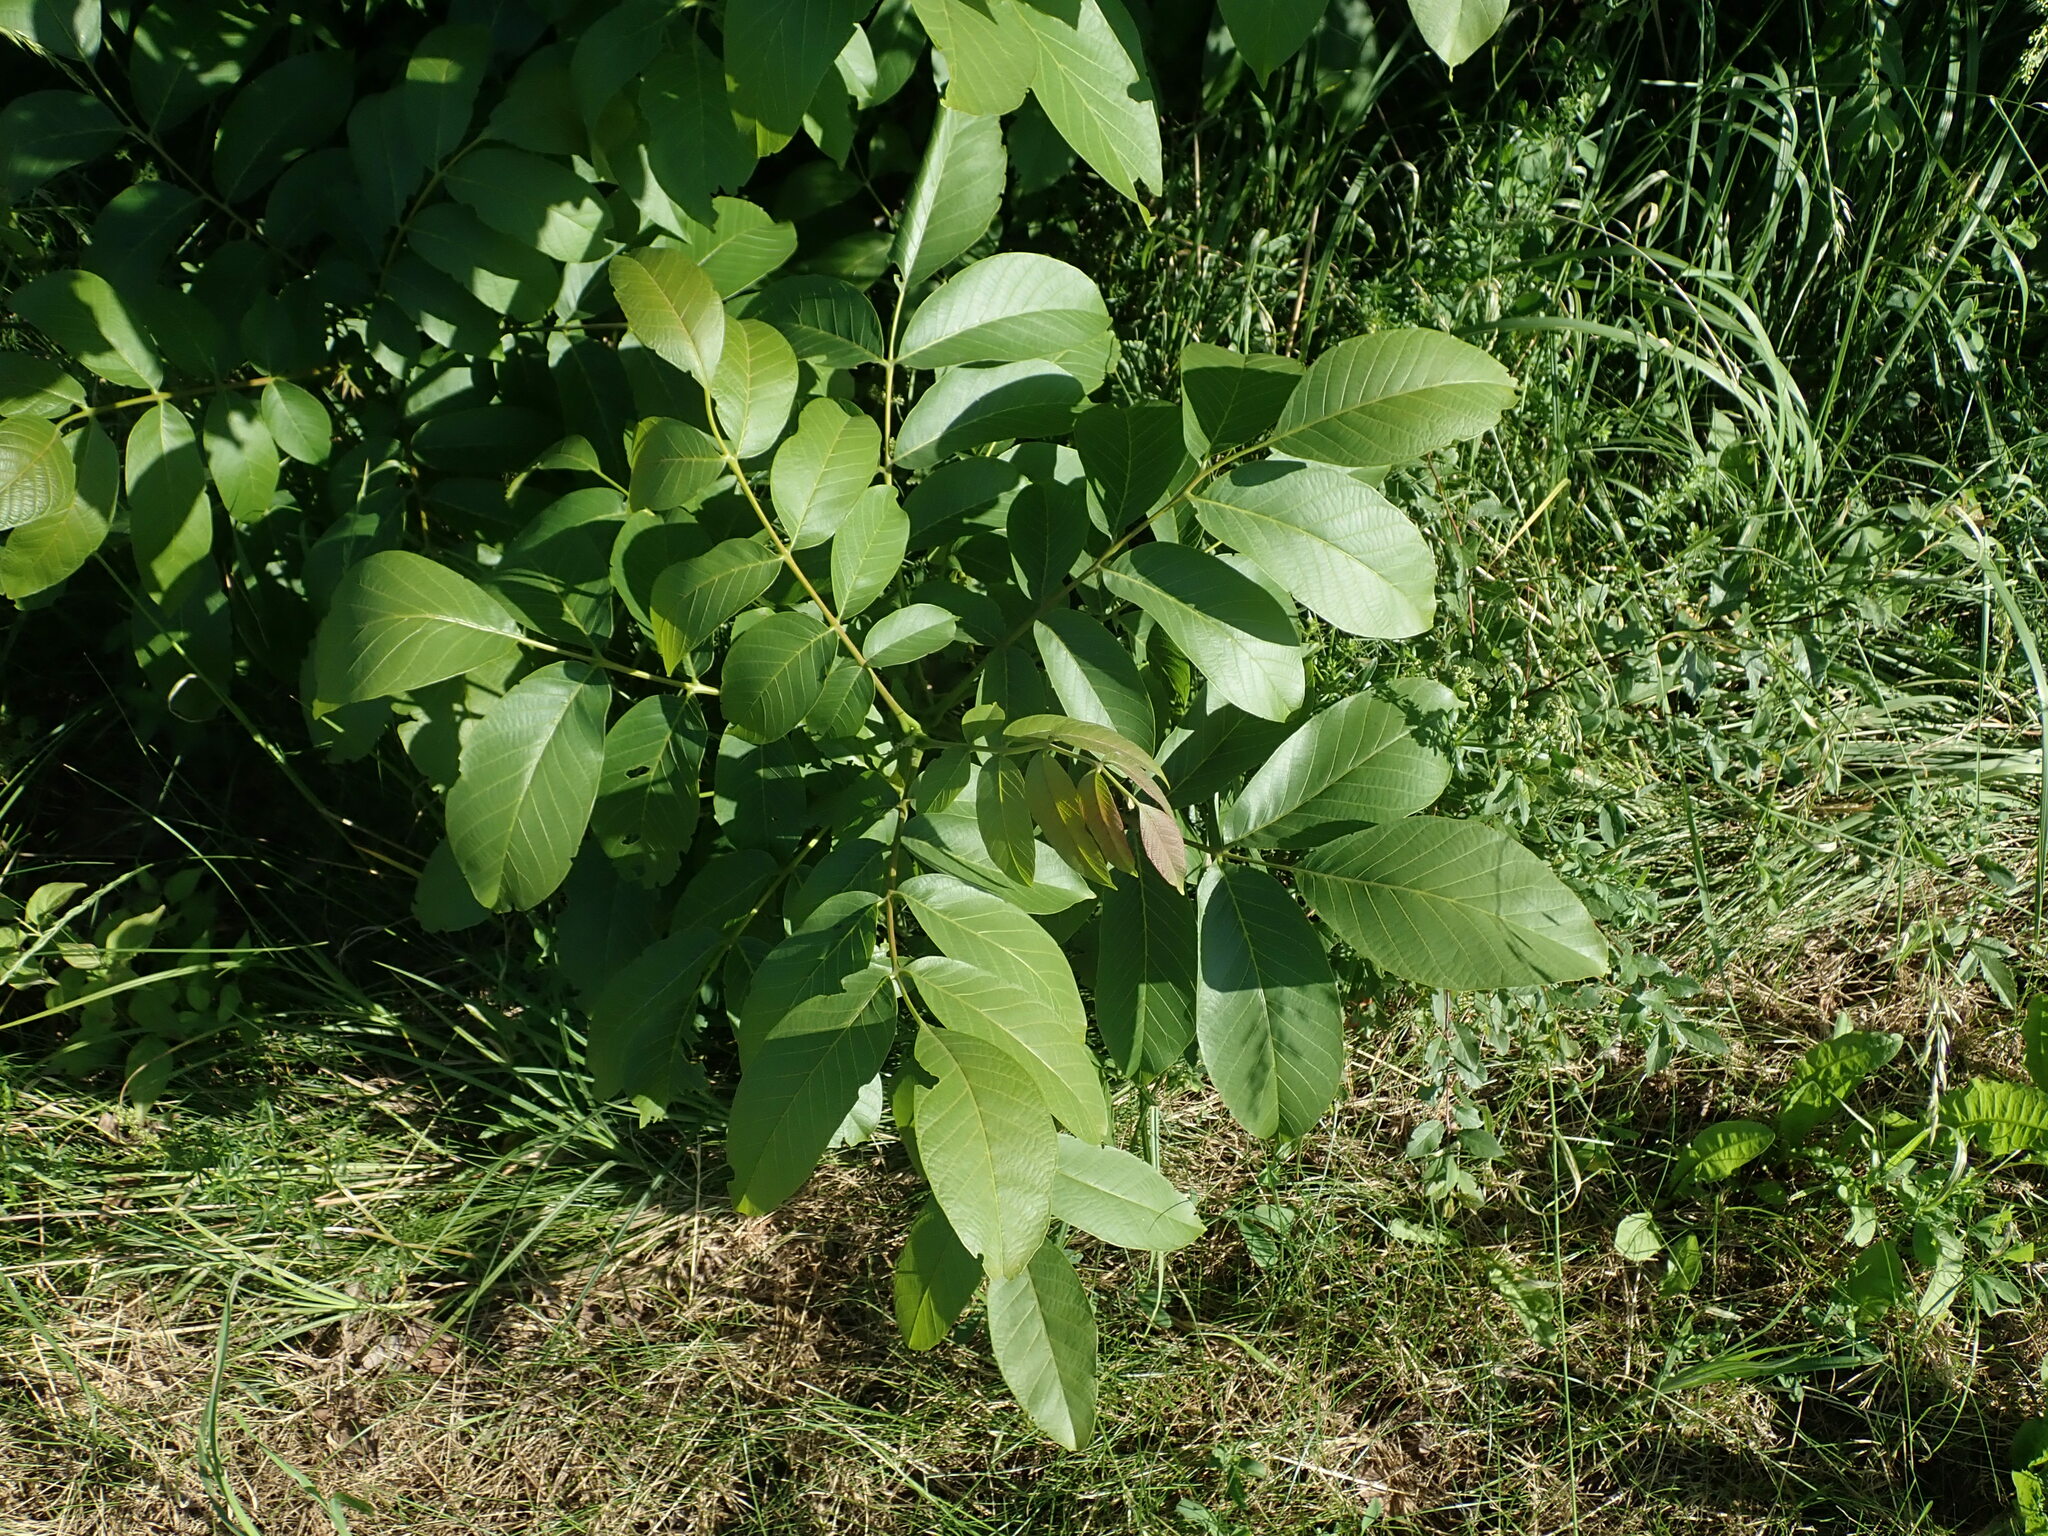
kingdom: Plantae
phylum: Tracheophyta
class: Magnoliopsida
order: Fagales
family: Juglandaceae
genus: Juglans
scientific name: Juglans regia
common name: Walnut
